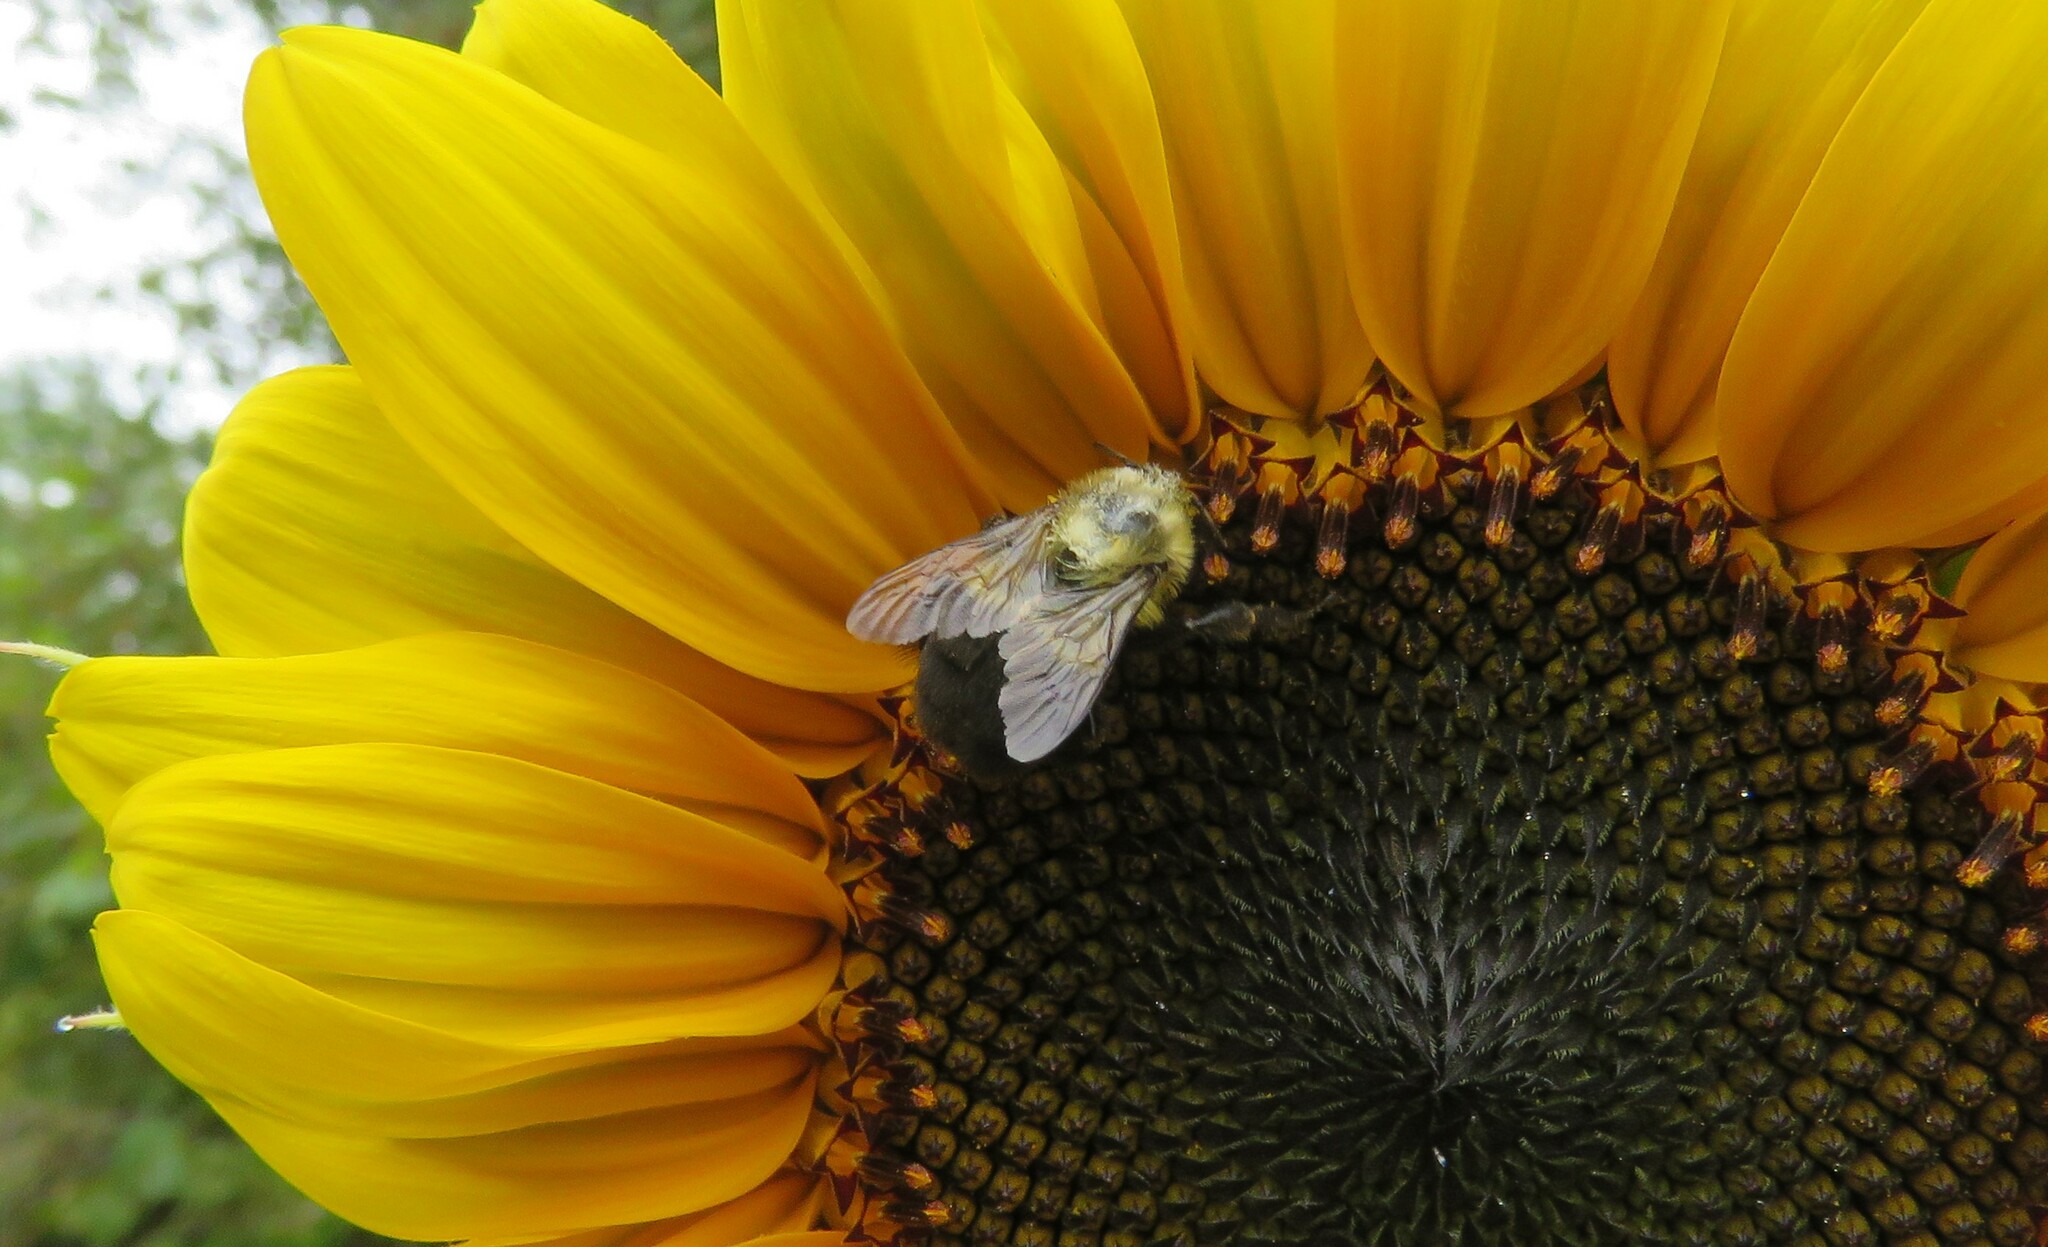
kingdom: Animalia
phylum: Arthropoda
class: Insecta
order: Hymenoptera
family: Apidae
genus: Bombus
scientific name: Bombus impatiens
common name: Common eastern bumble bee
